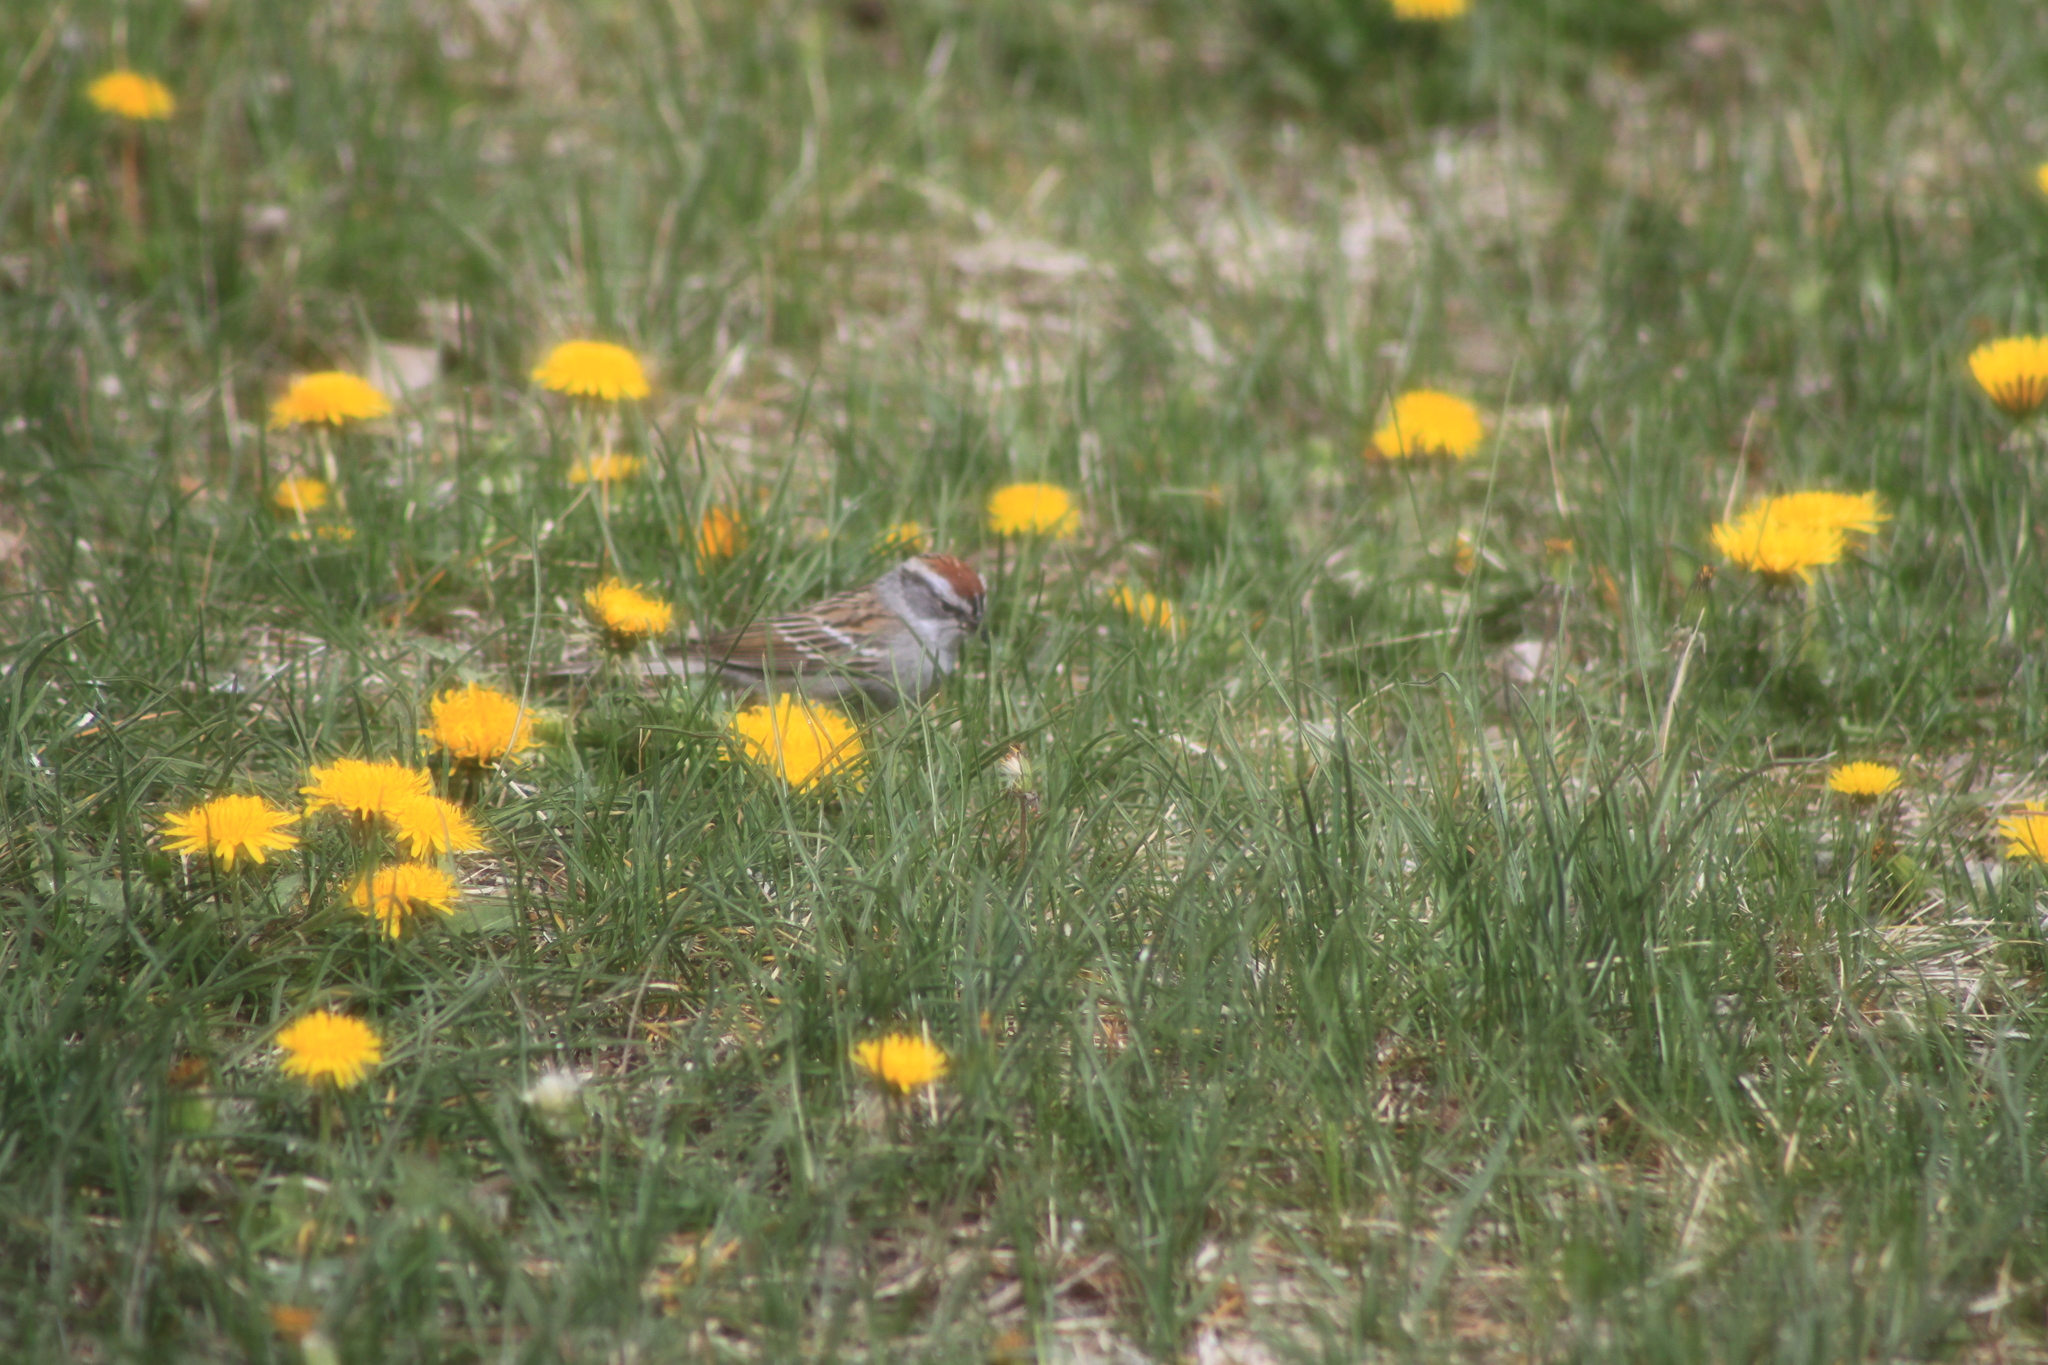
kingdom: Animalia
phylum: Chordata
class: Aves
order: Passeriformes
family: Passerellidae
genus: Spizella
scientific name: Spizella passerina
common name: Chipping sparrow
